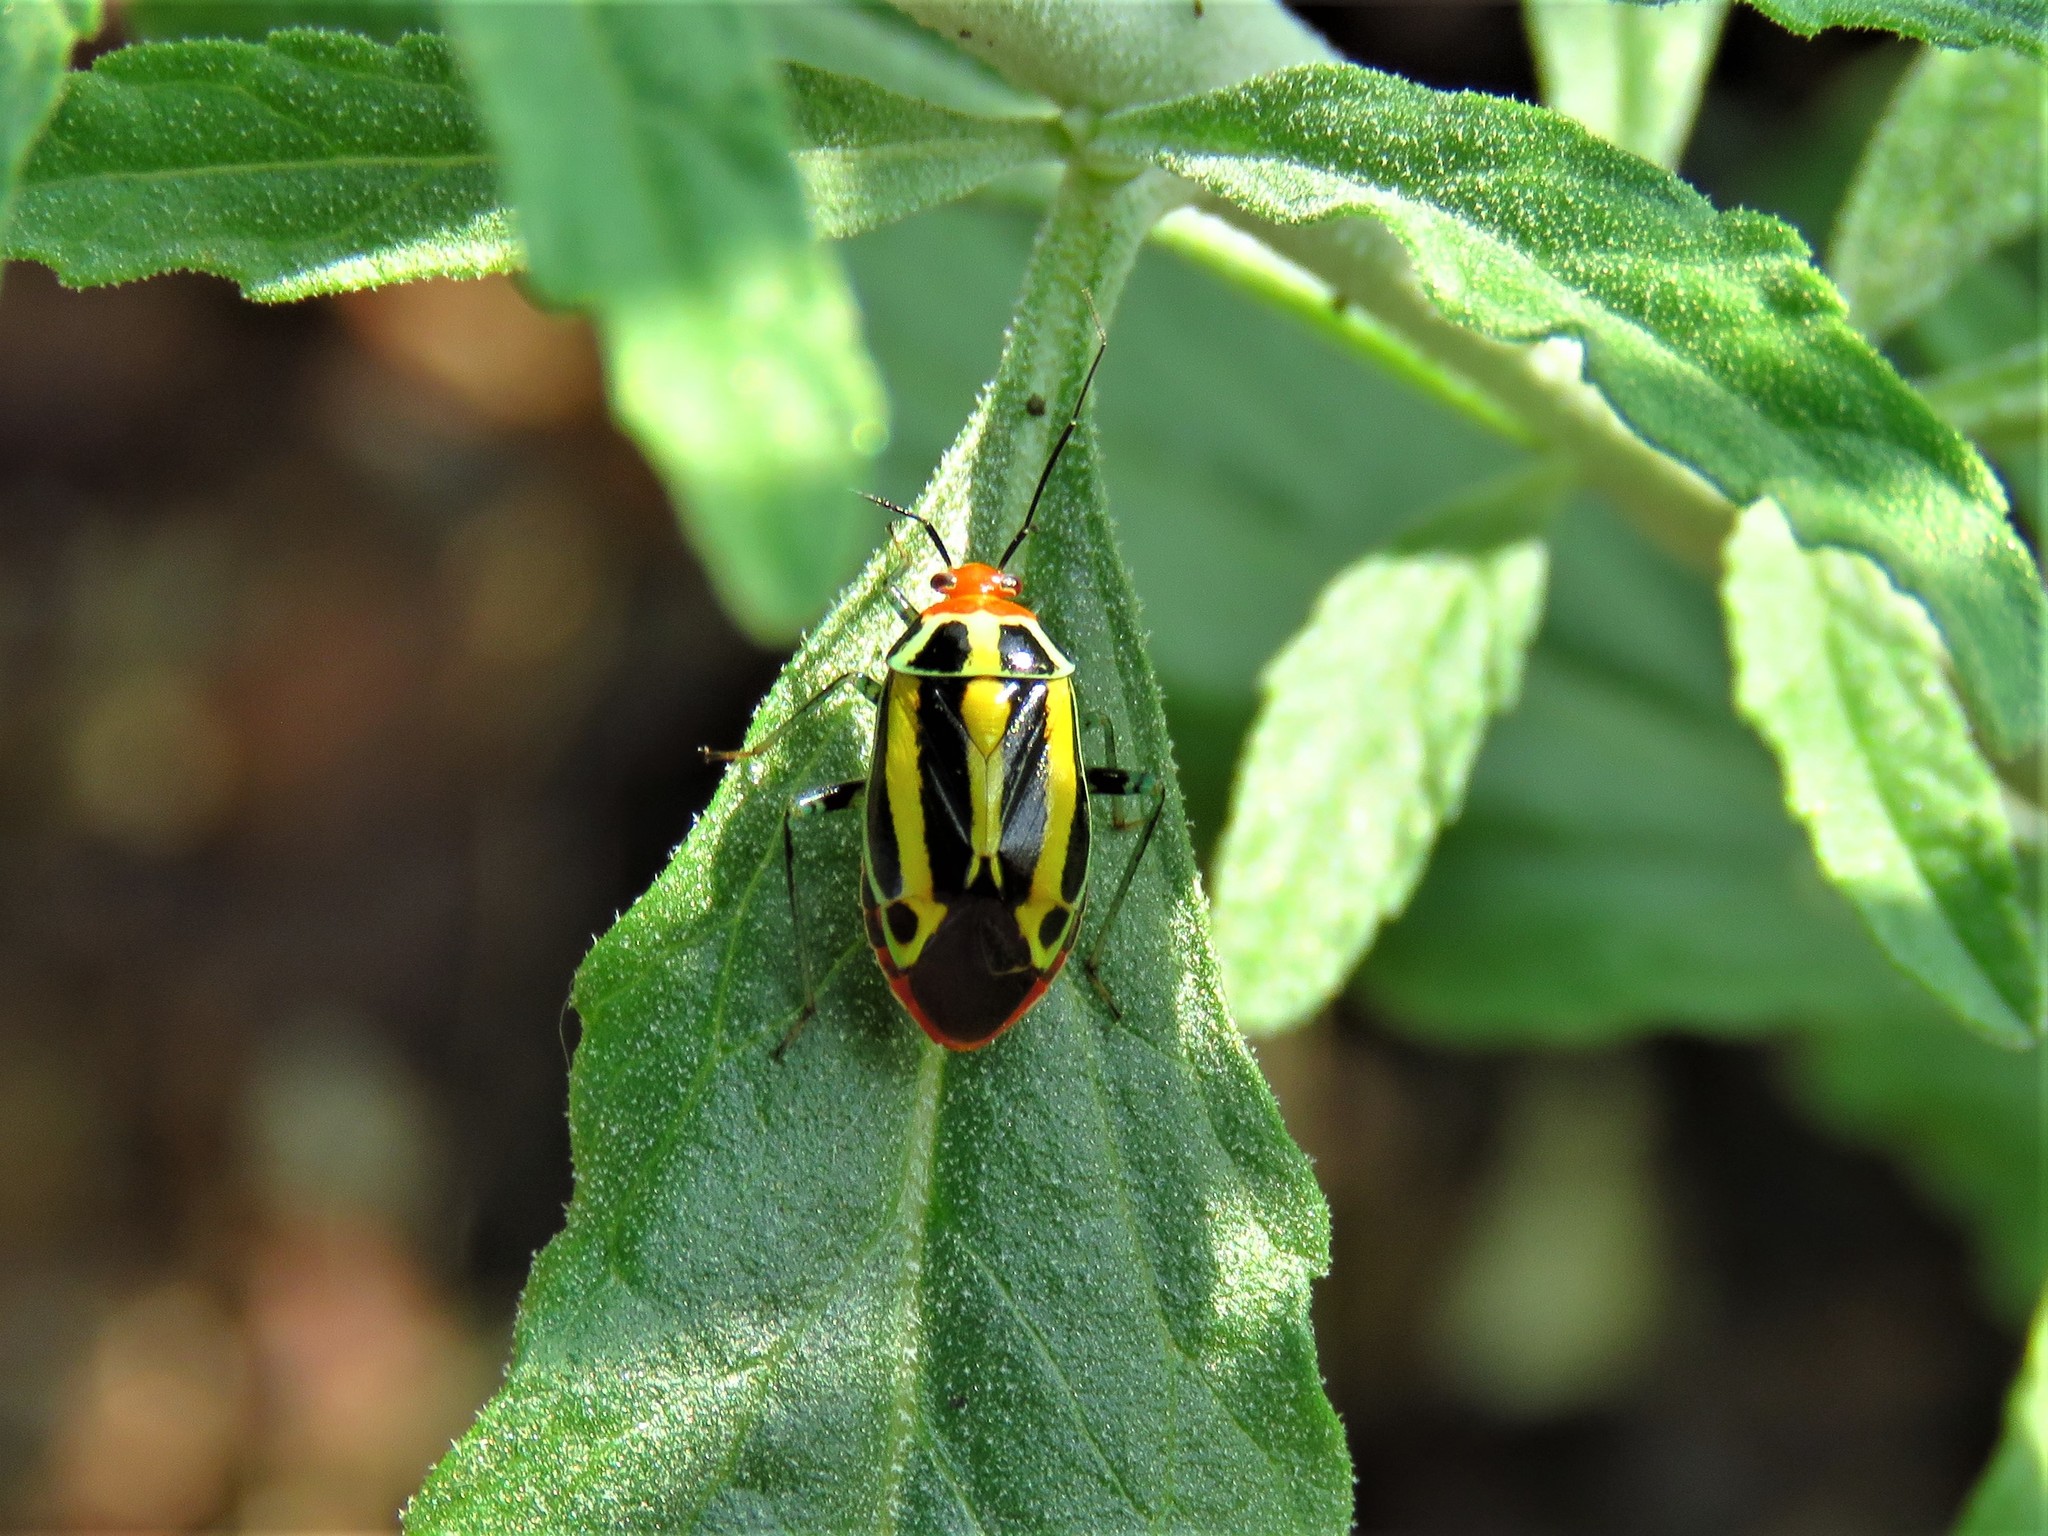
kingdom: Animalia
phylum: Arthropoda
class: Insecta
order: Hemiptera
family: Miridae
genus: Poecilocapsus
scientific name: Poecilocapsus lineatus
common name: Four-lined plant bug
